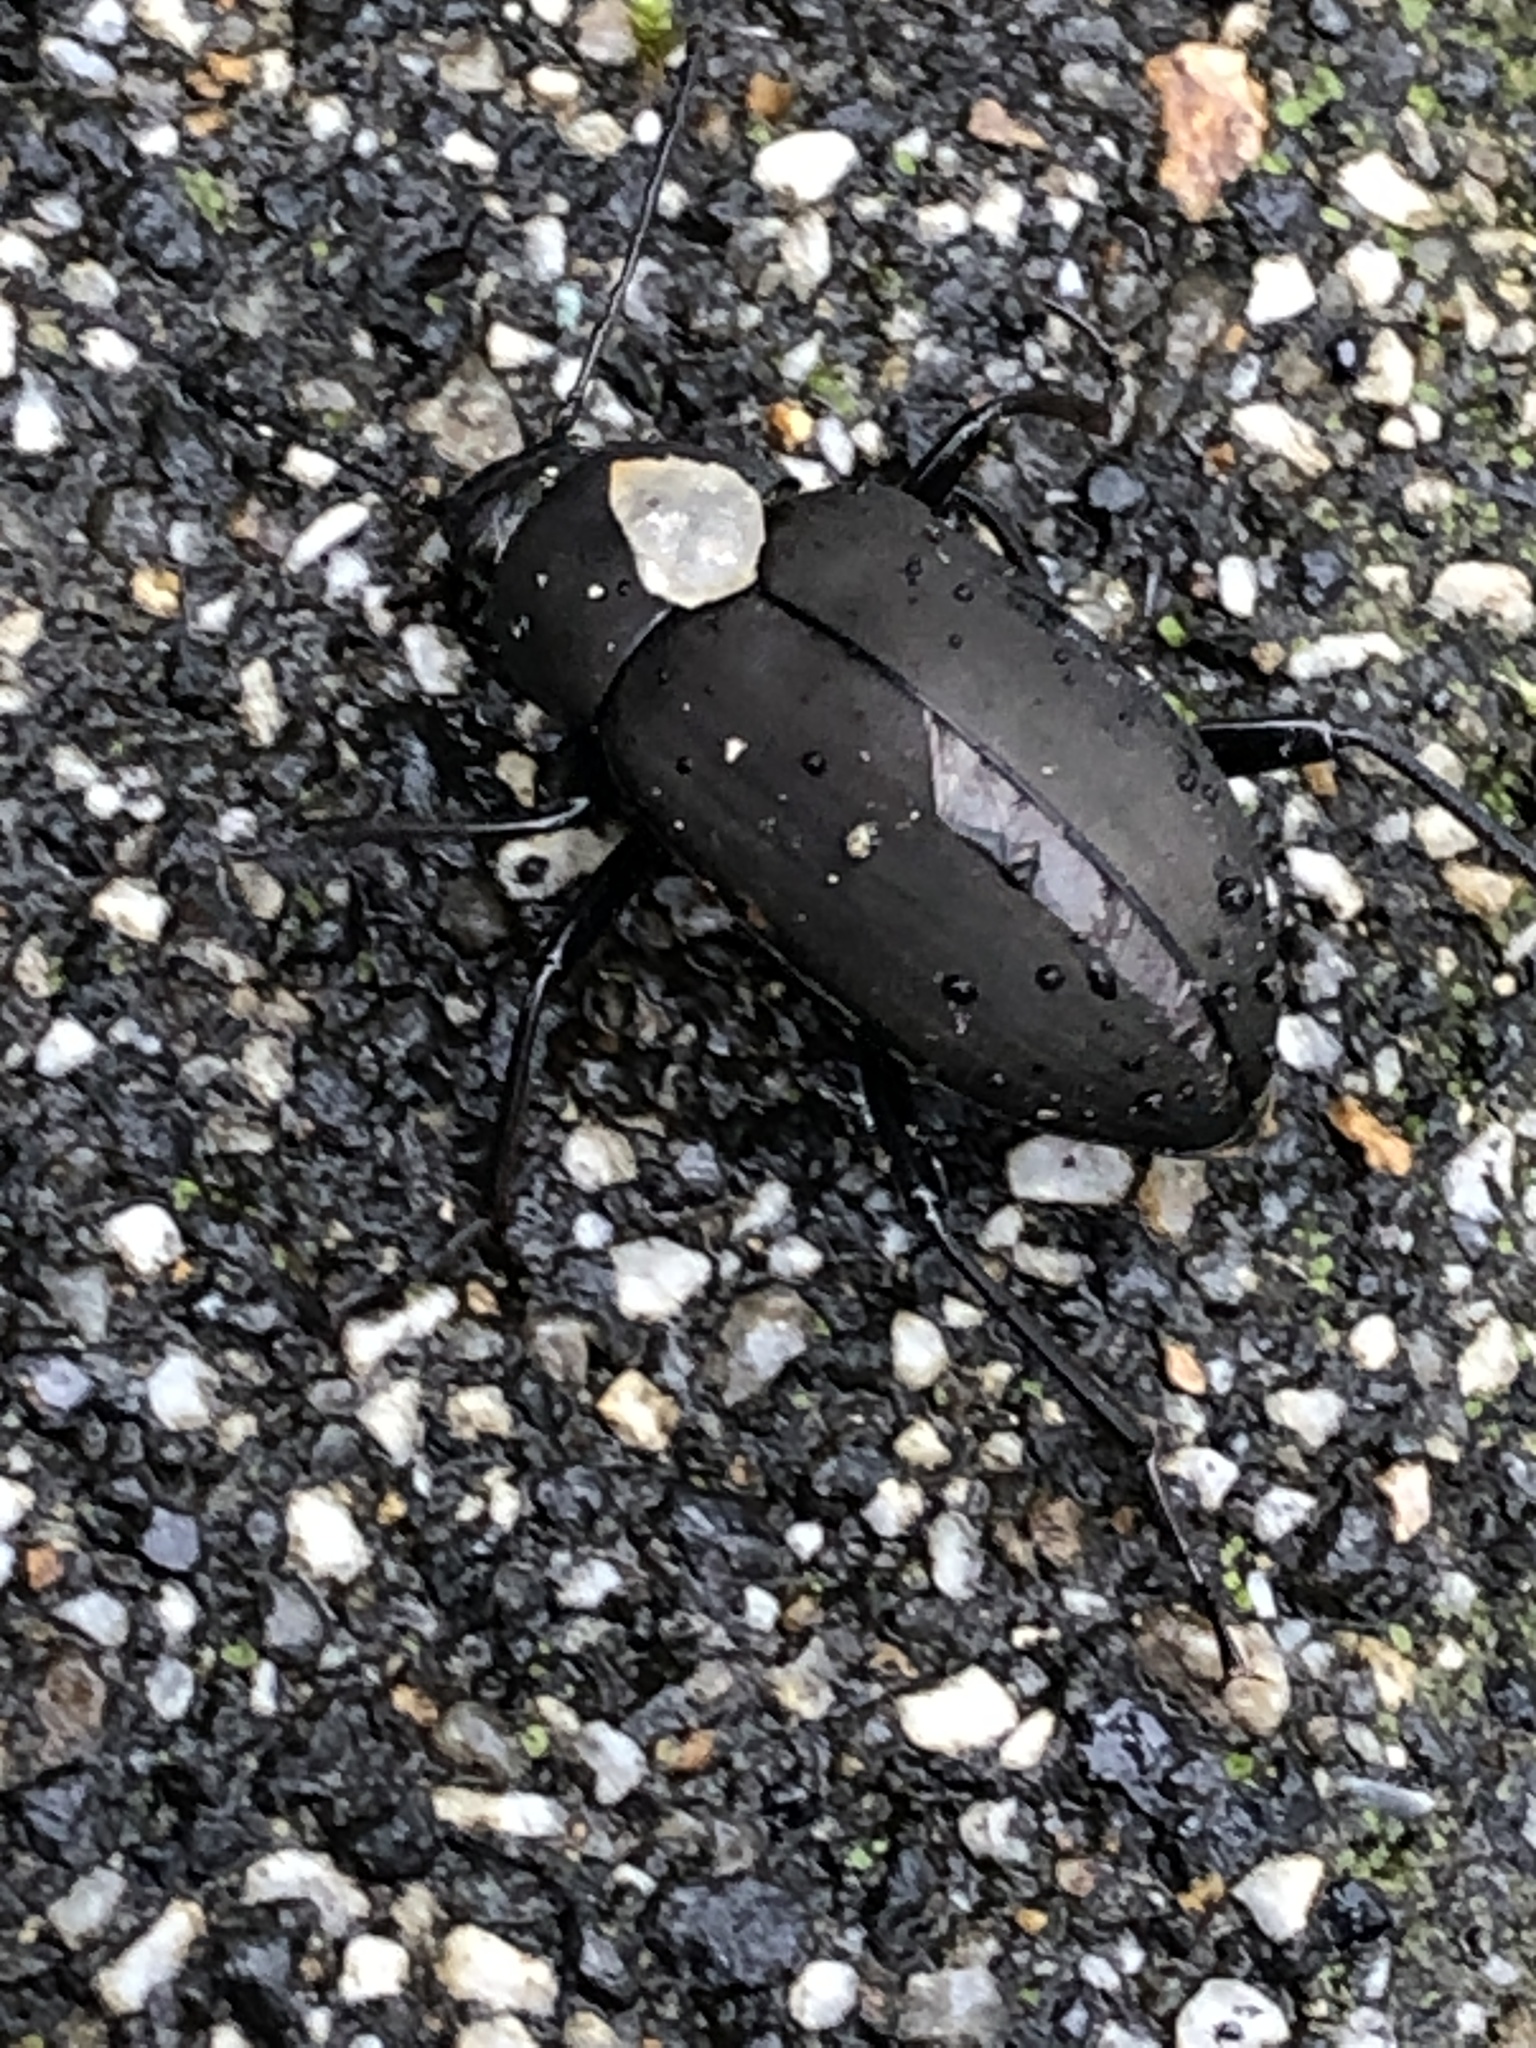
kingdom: Animalia
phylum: Arthropoda
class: Insecta
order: Coleoptera
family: Tenebrionidae
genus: Plesiophthalmus
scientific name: Plesiophthalmus
